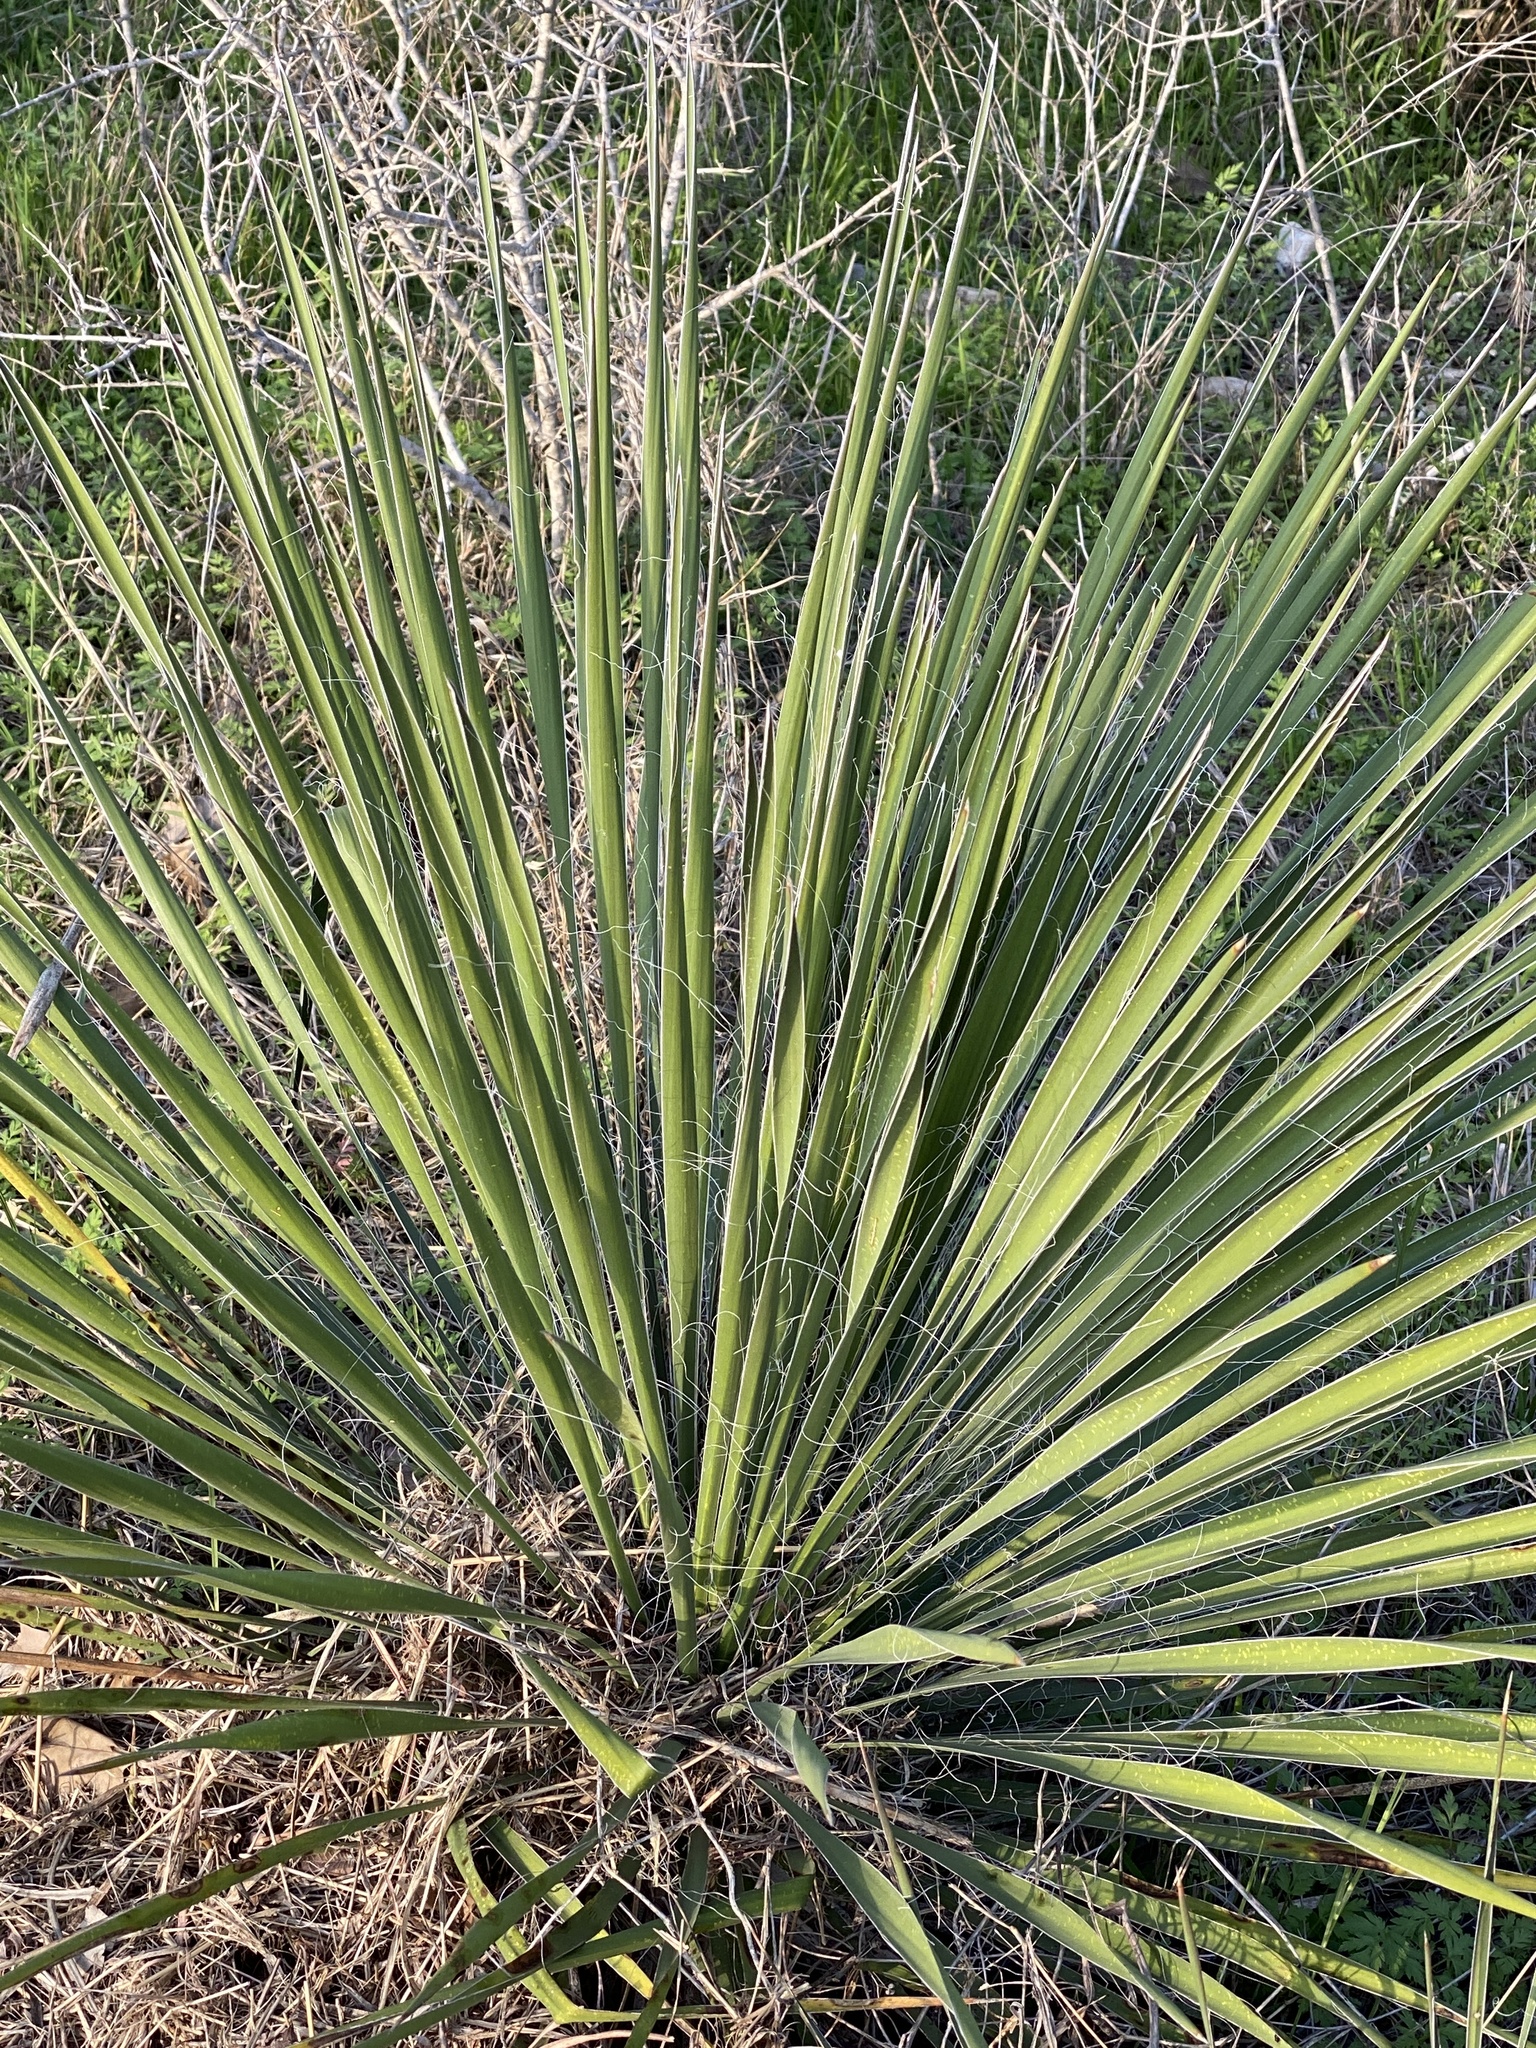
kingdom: Plantae
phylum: Tracheophyta
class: Liliopsida
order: Asparagales
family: Asparagaceae
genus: Yucca
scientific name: Yucca constricta
